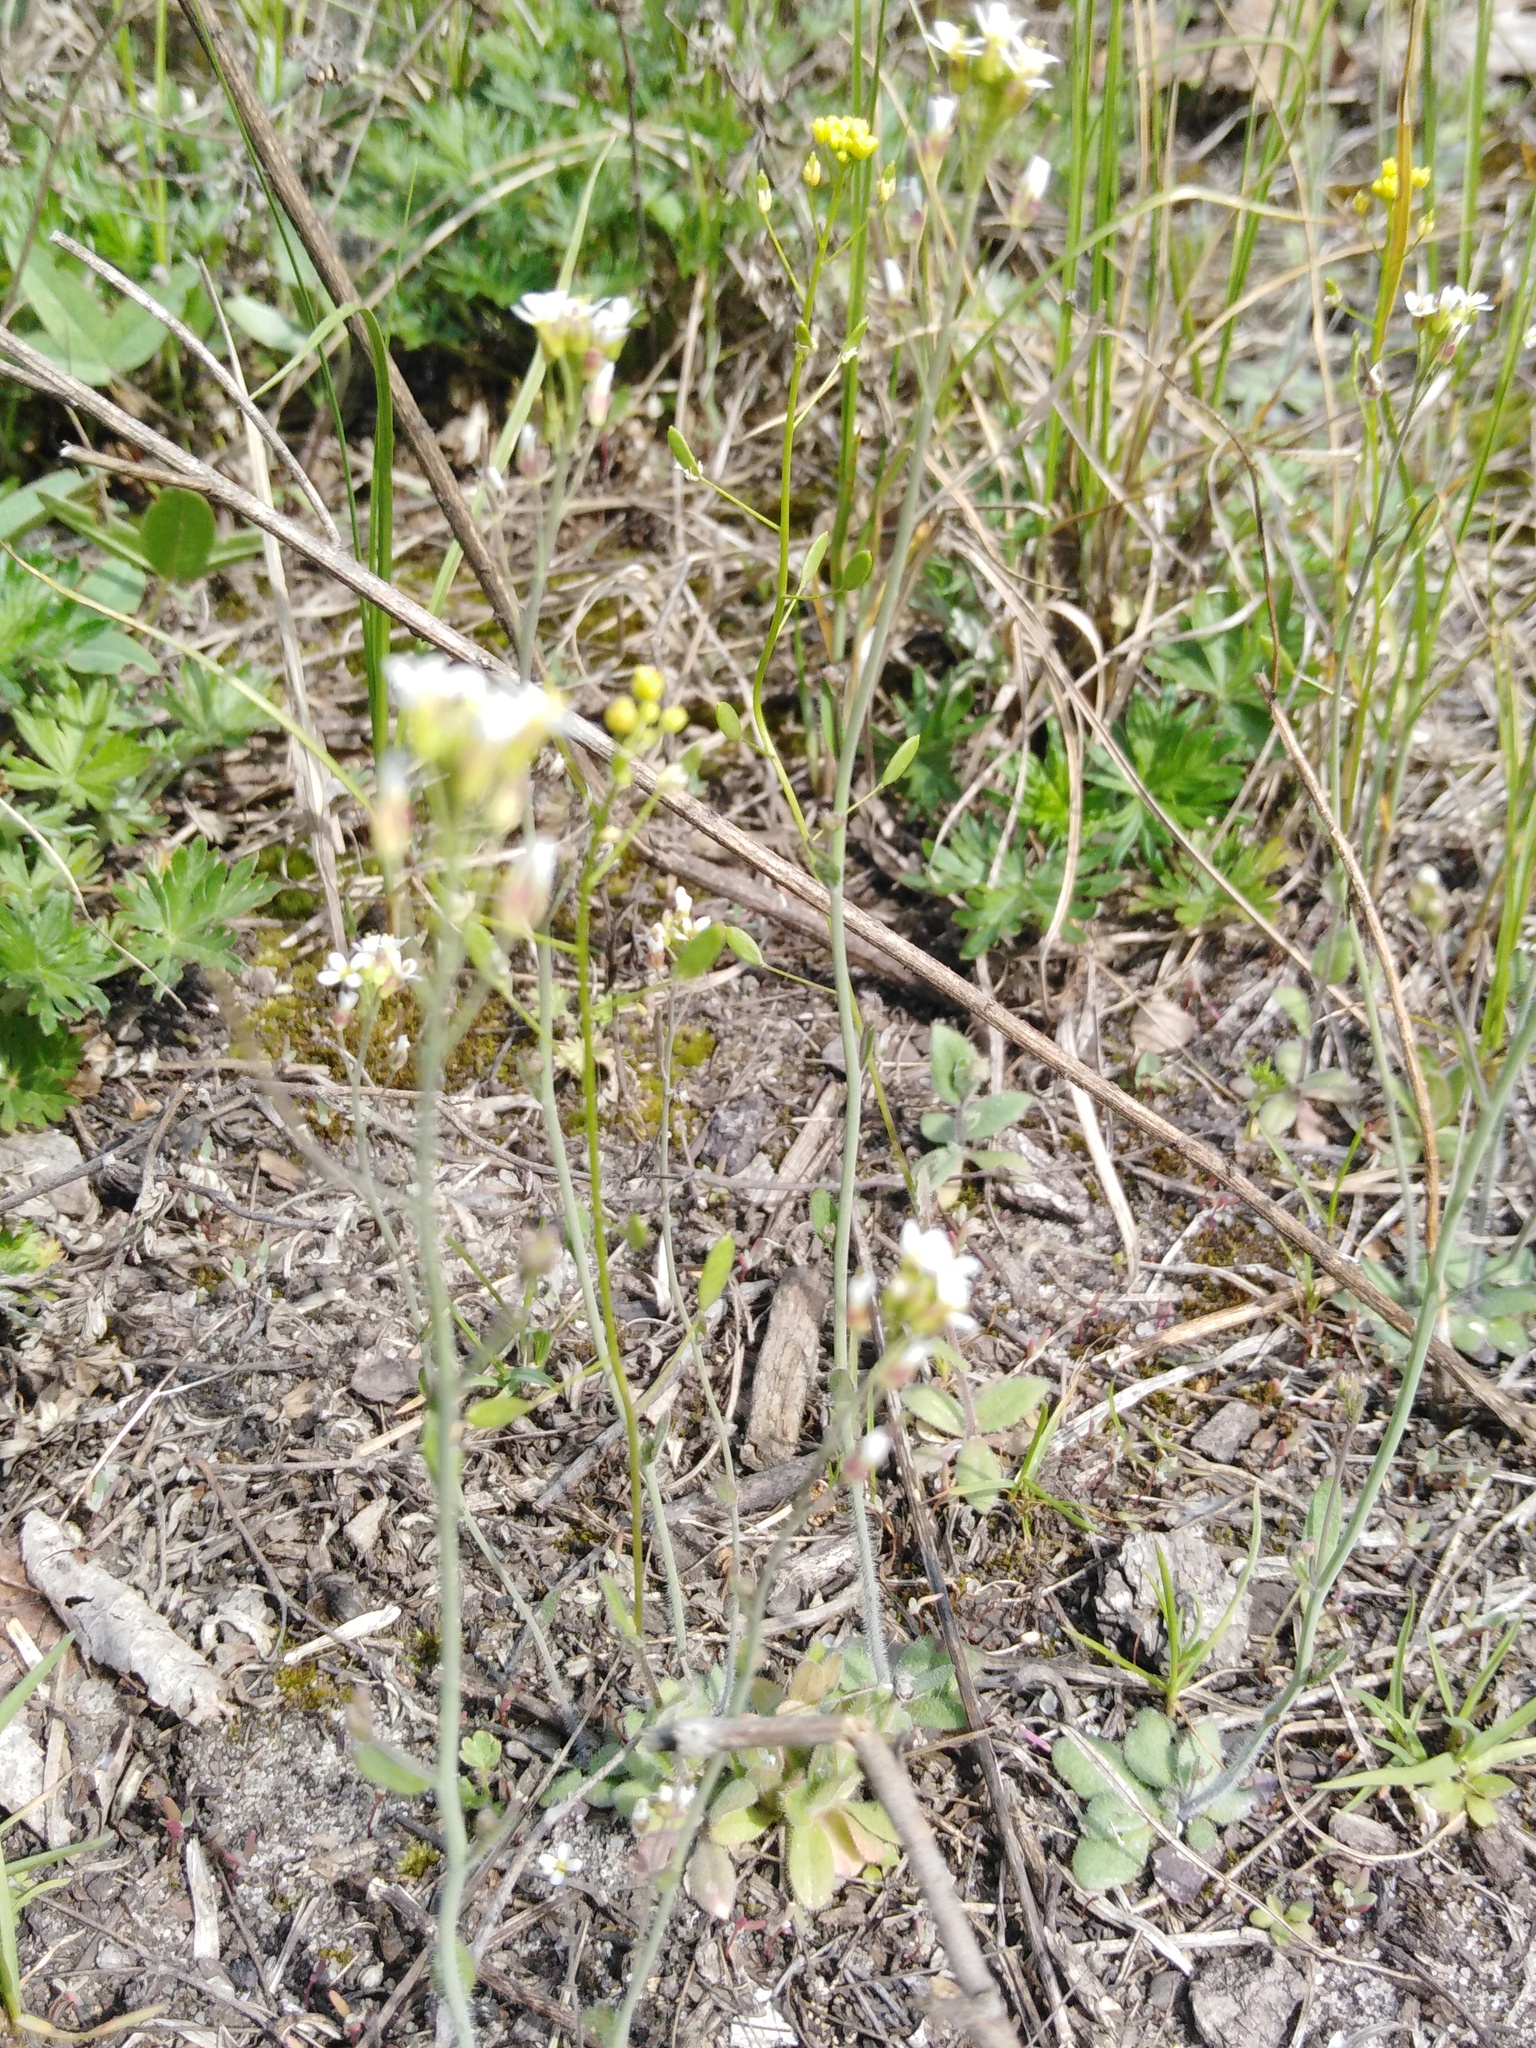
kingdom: Plantae
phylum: Tracheophyta
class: Magnoliopsida
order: Brassicales
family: Brassicaceae
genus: Arabidopsis
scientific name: Arabidopsis thaliana
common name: Thale cress
